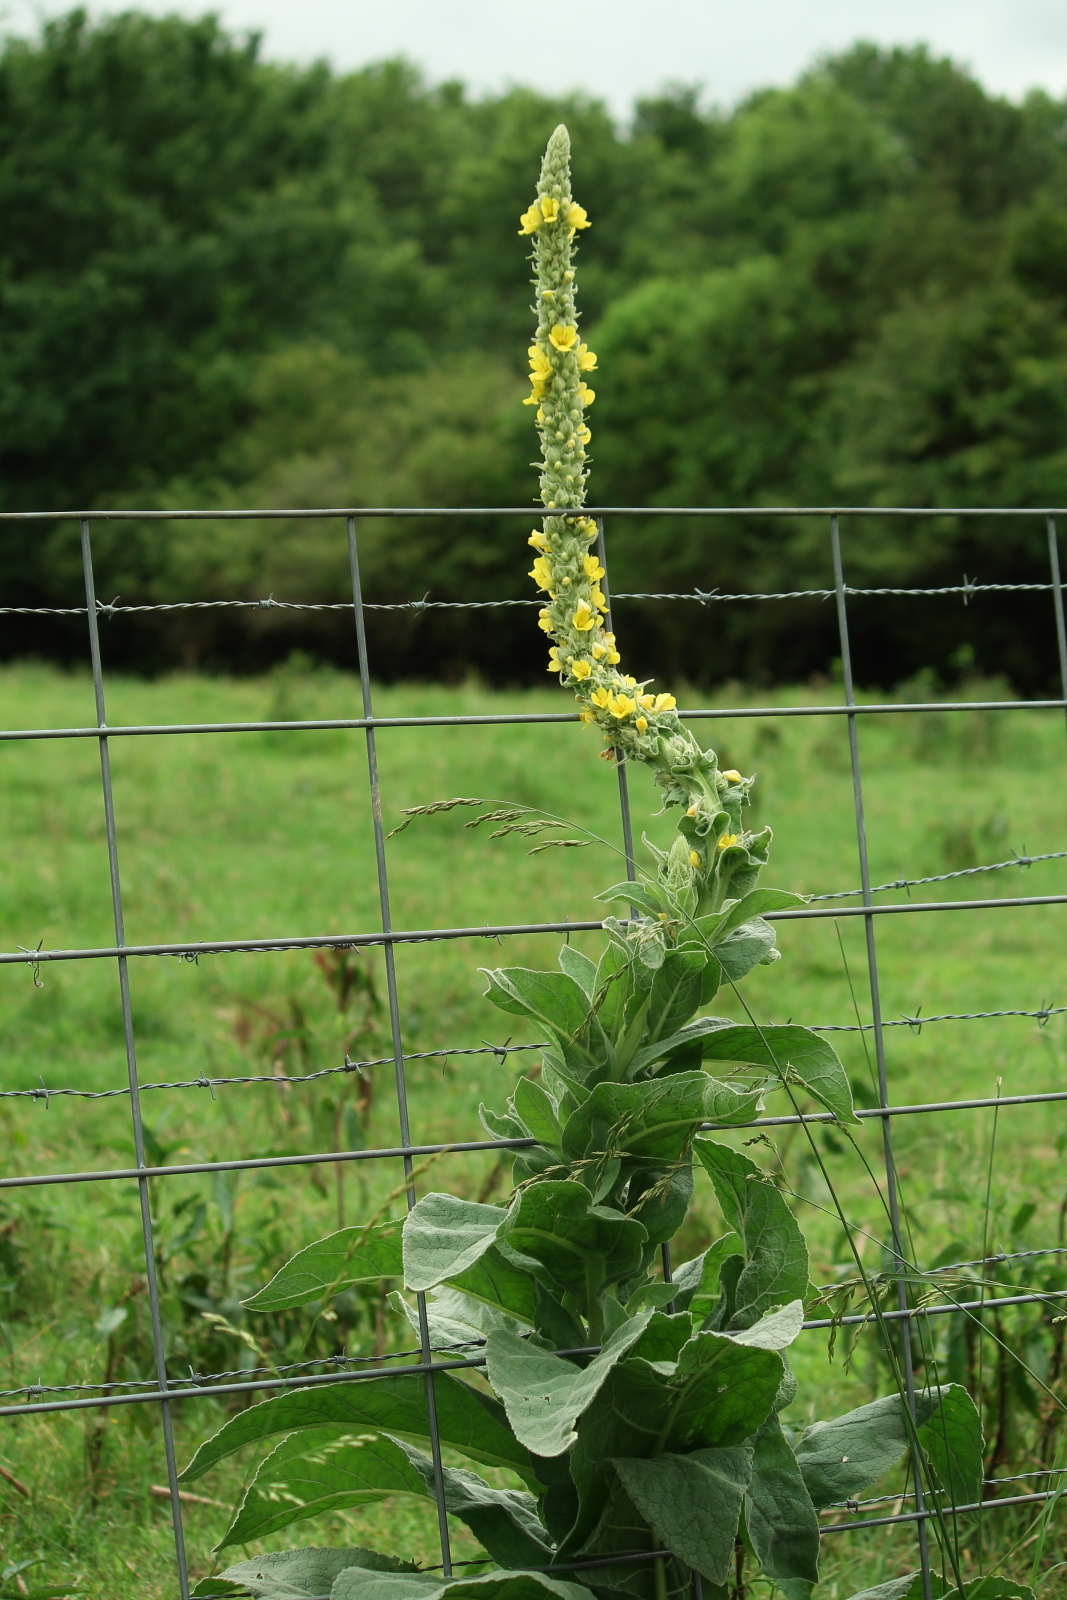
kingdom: Plantae
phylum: Tracheophyta
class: Magnoliopsida
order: Lamiales
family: Scrophulariaceae
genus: Verbascum
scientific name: Verbascum thapsus
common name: Common mullein
